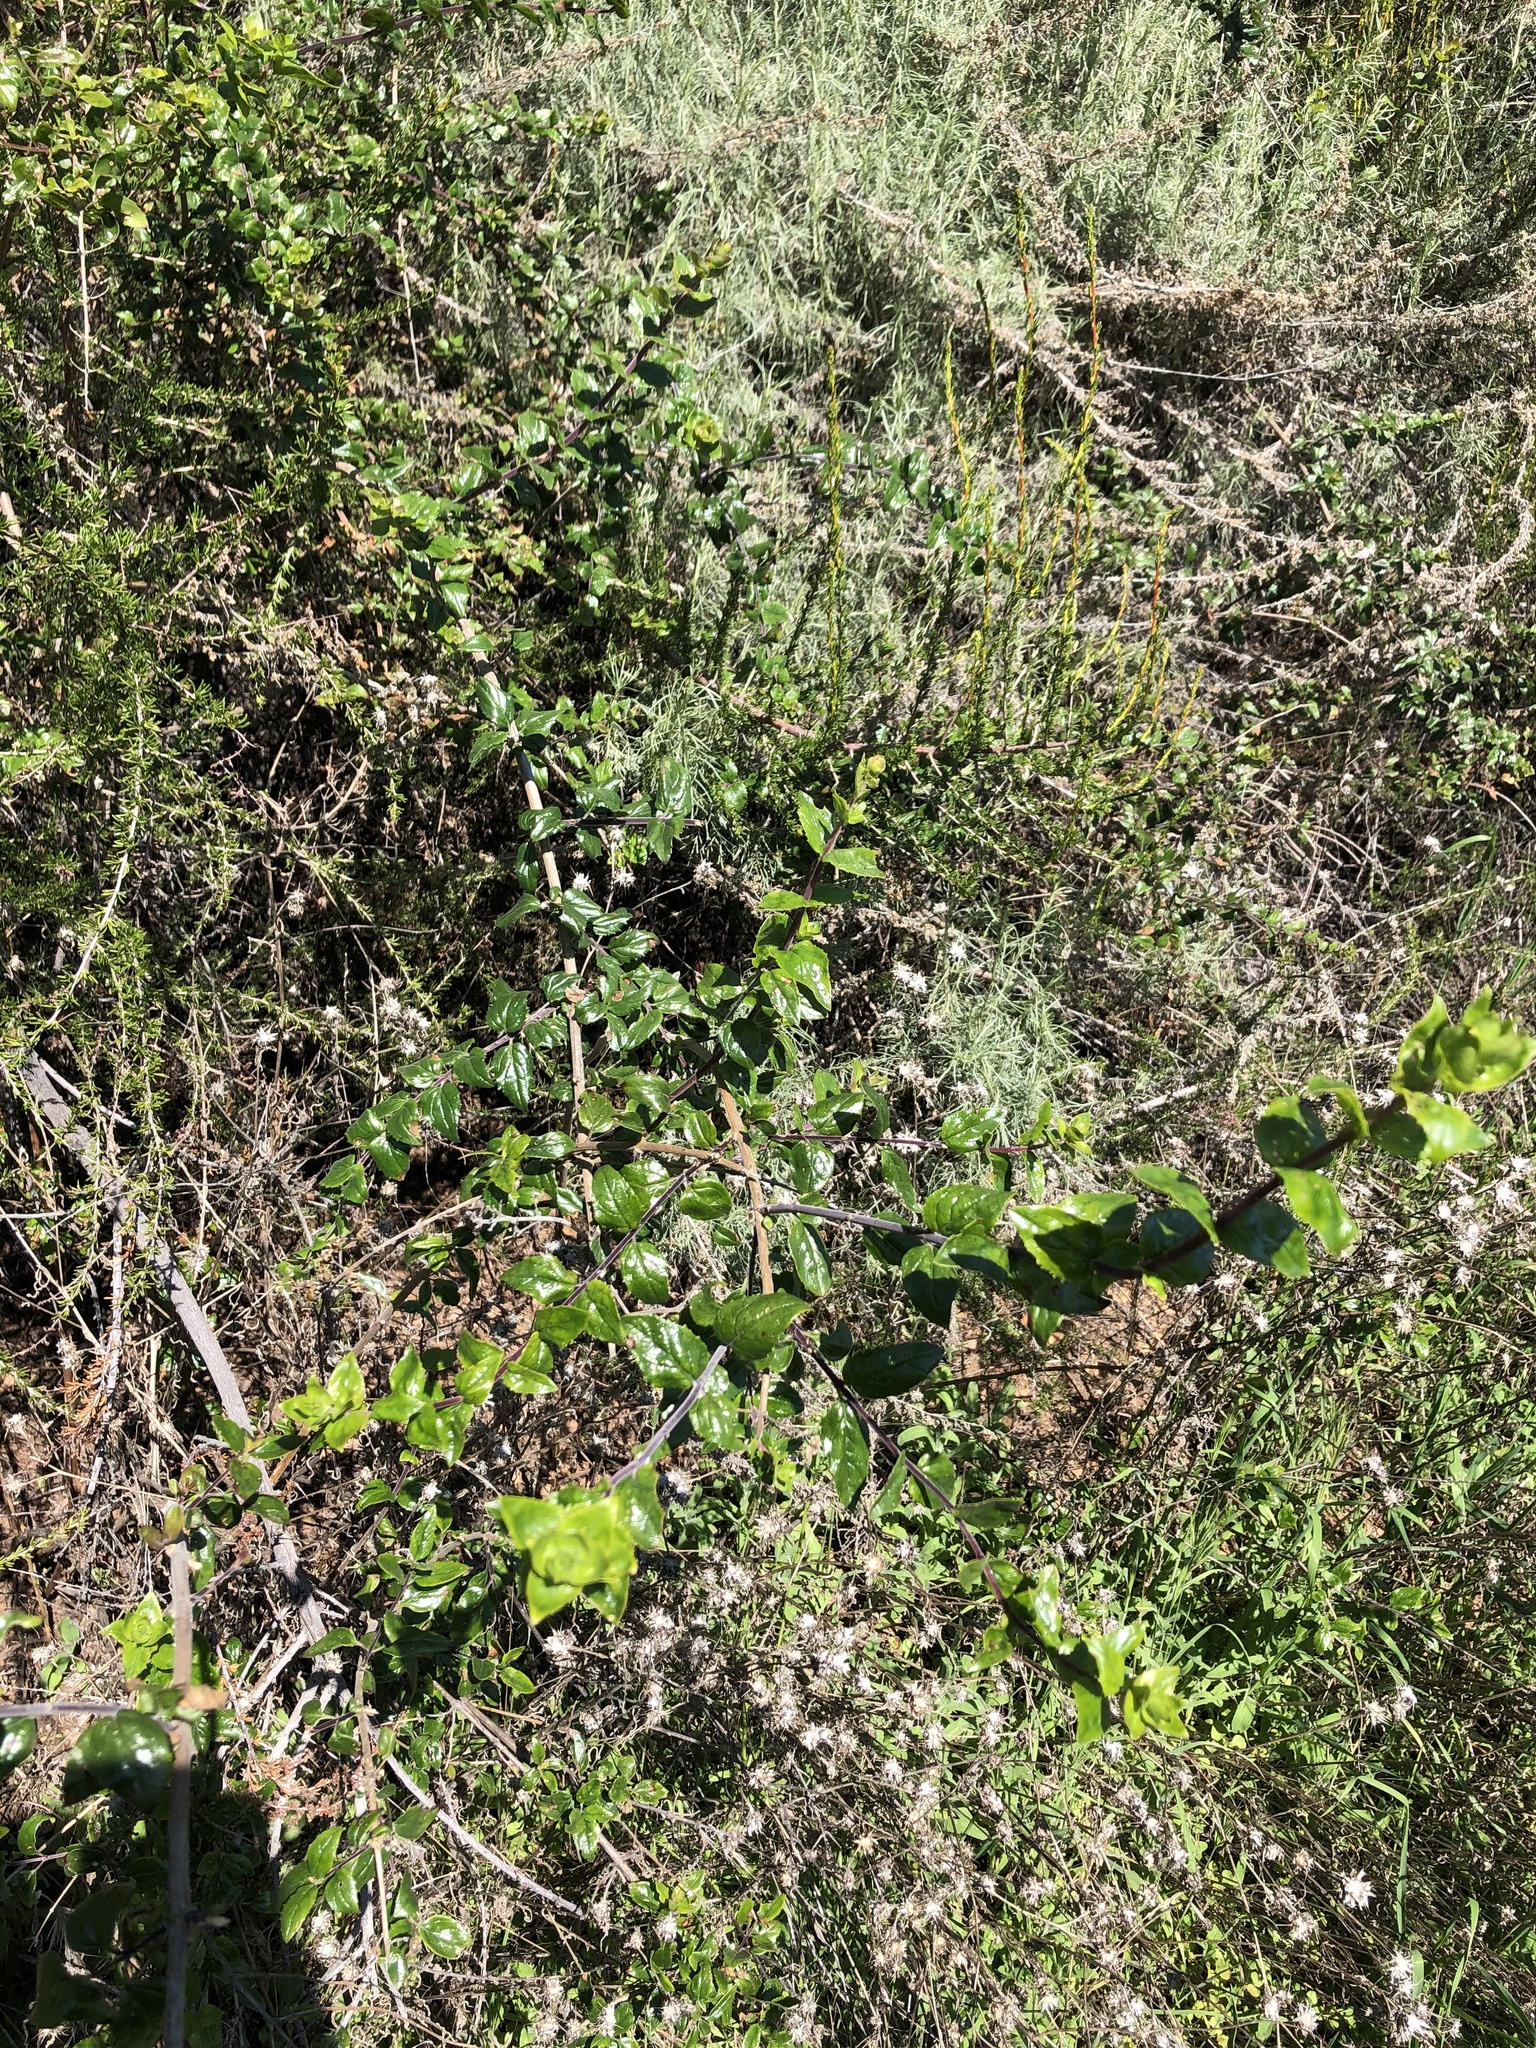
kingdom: Plantae
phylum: Tracheophyta
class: Magnoliopsida
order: Rosales
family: Rosaceae
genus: Prunus
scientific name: Prunus ilicifolia
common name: Hollyleaf cherry
